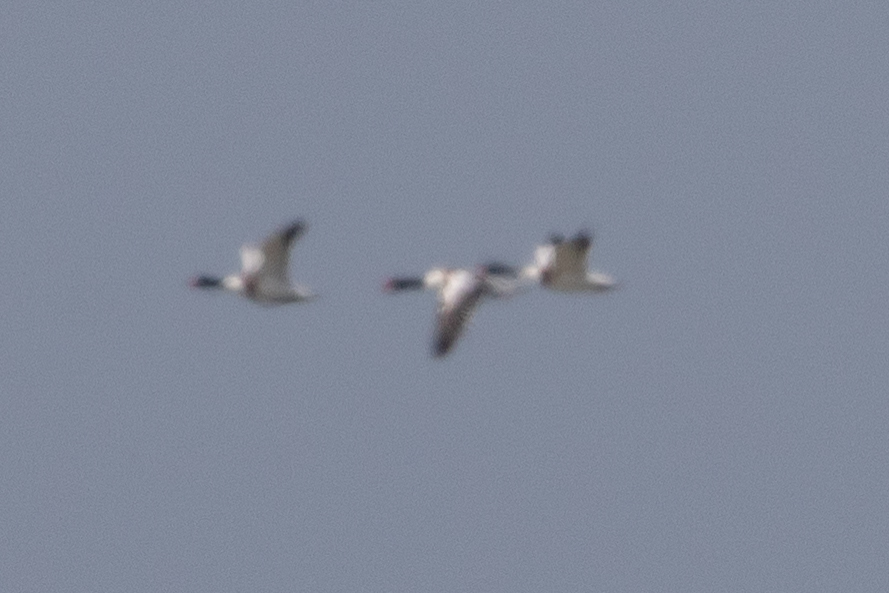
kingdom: Animalia
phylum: Chordata
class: Aves
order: Anseriformes
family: Anatidae
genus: Tadorna
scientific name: Tadorna tadorna
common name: Common shelduck
